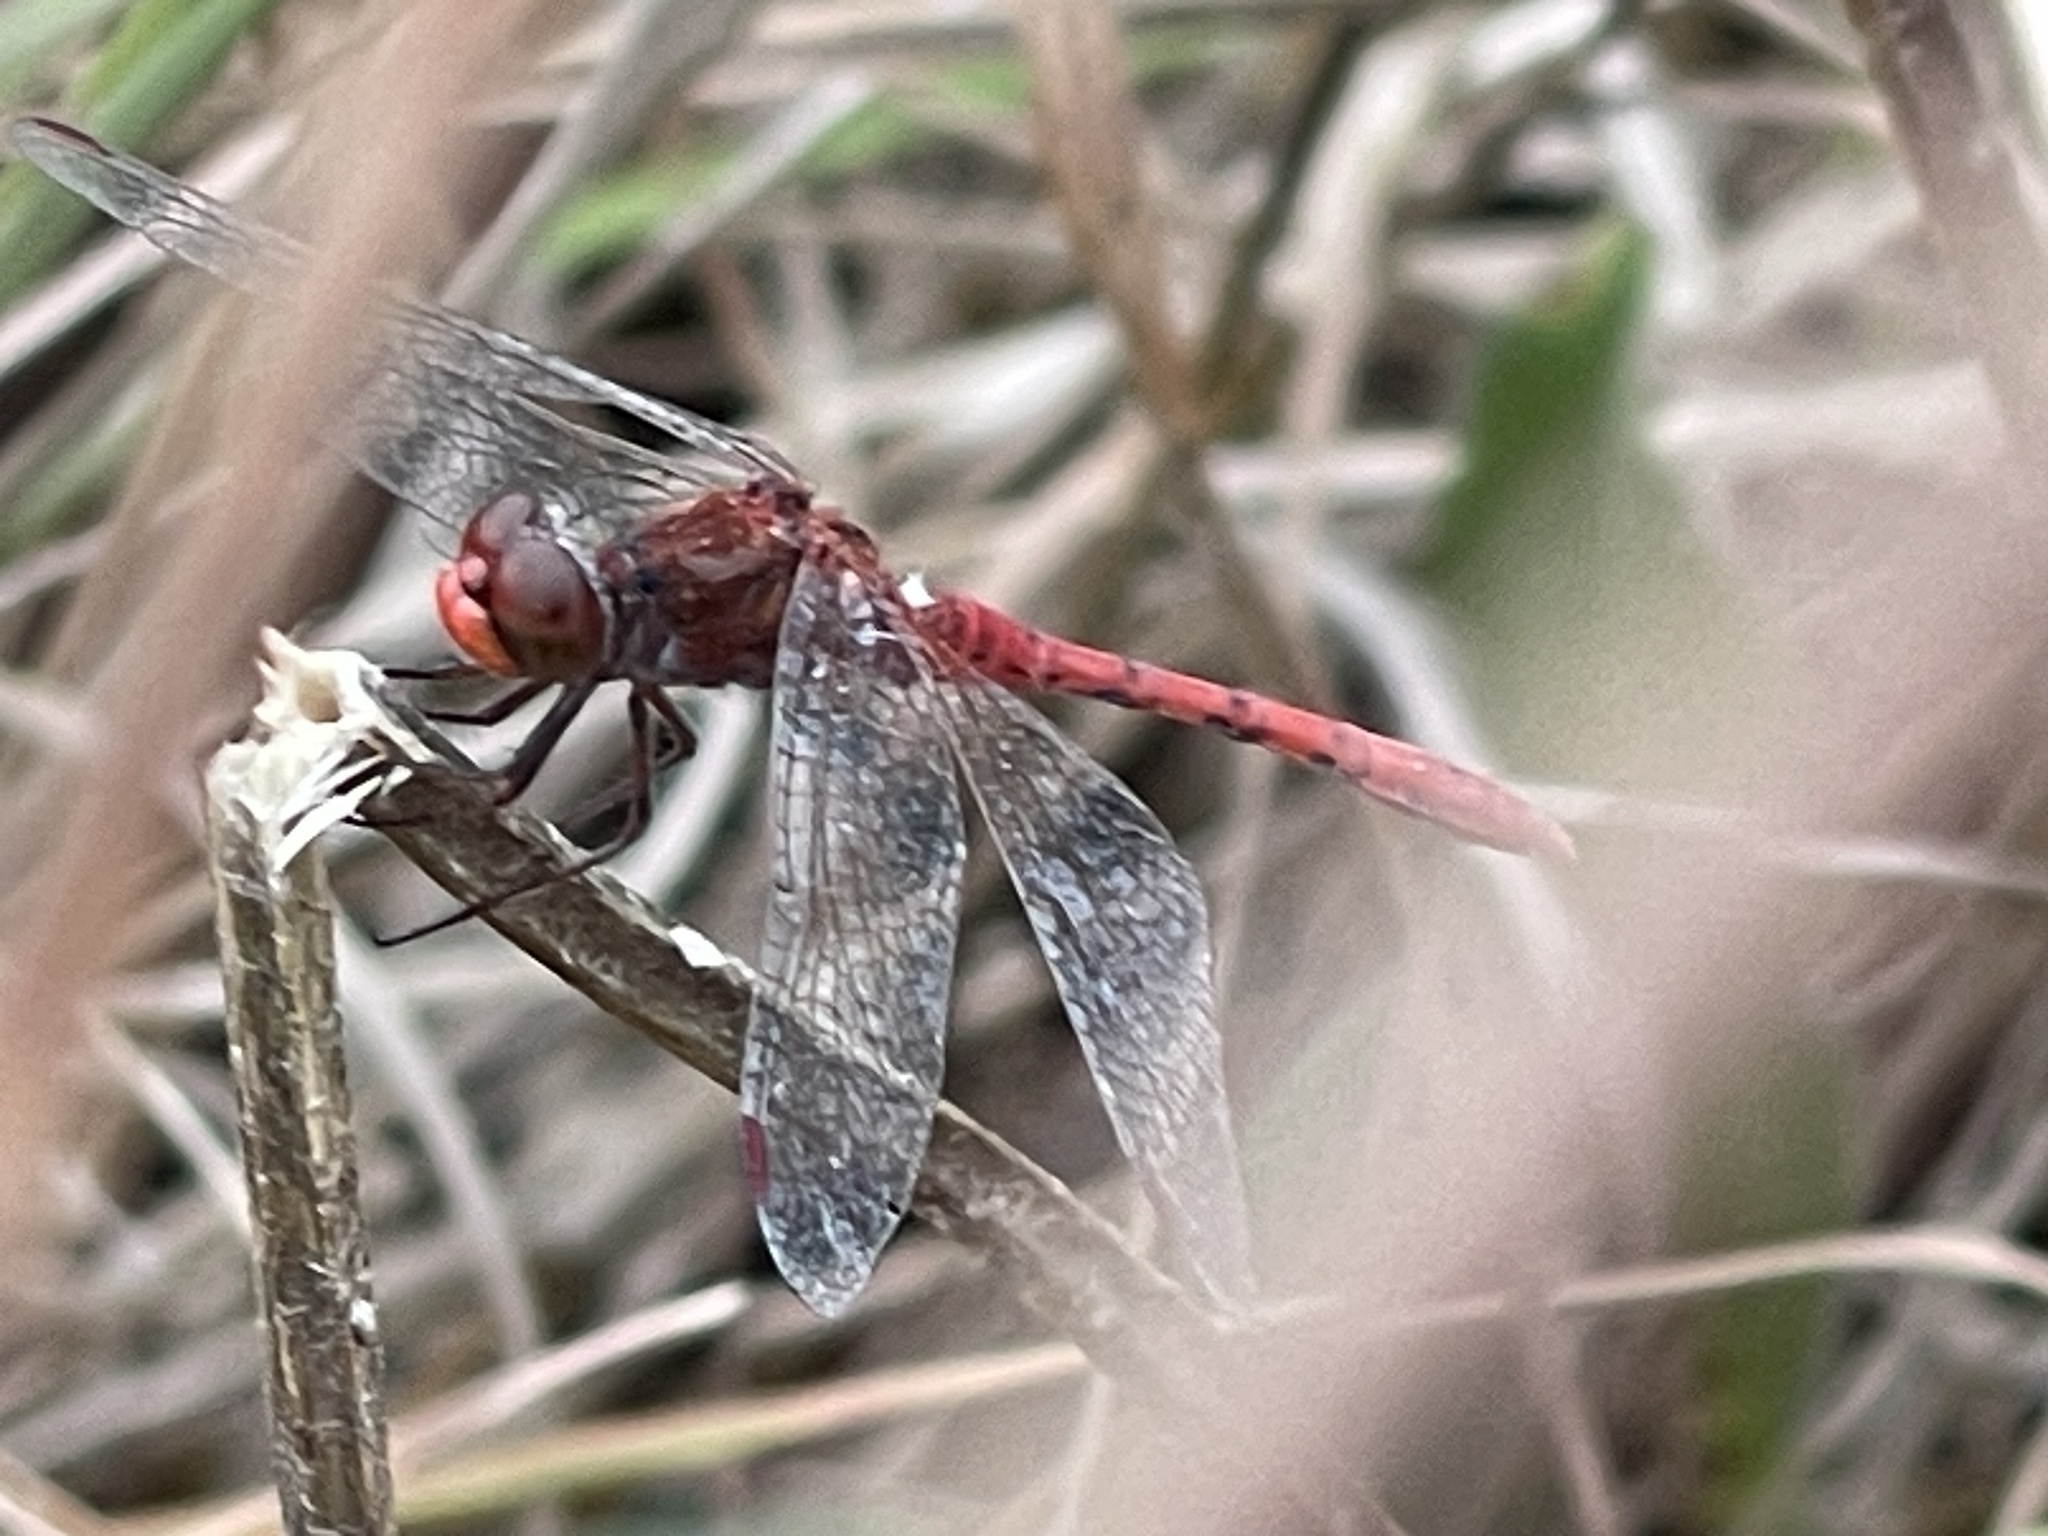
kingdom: Animalia
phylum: Arthropoda
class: Insecta
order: Odonata
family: Libellulidae
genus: Diplacodes
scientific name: Diplacodes bipunctata
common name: Red percher dragonfly
